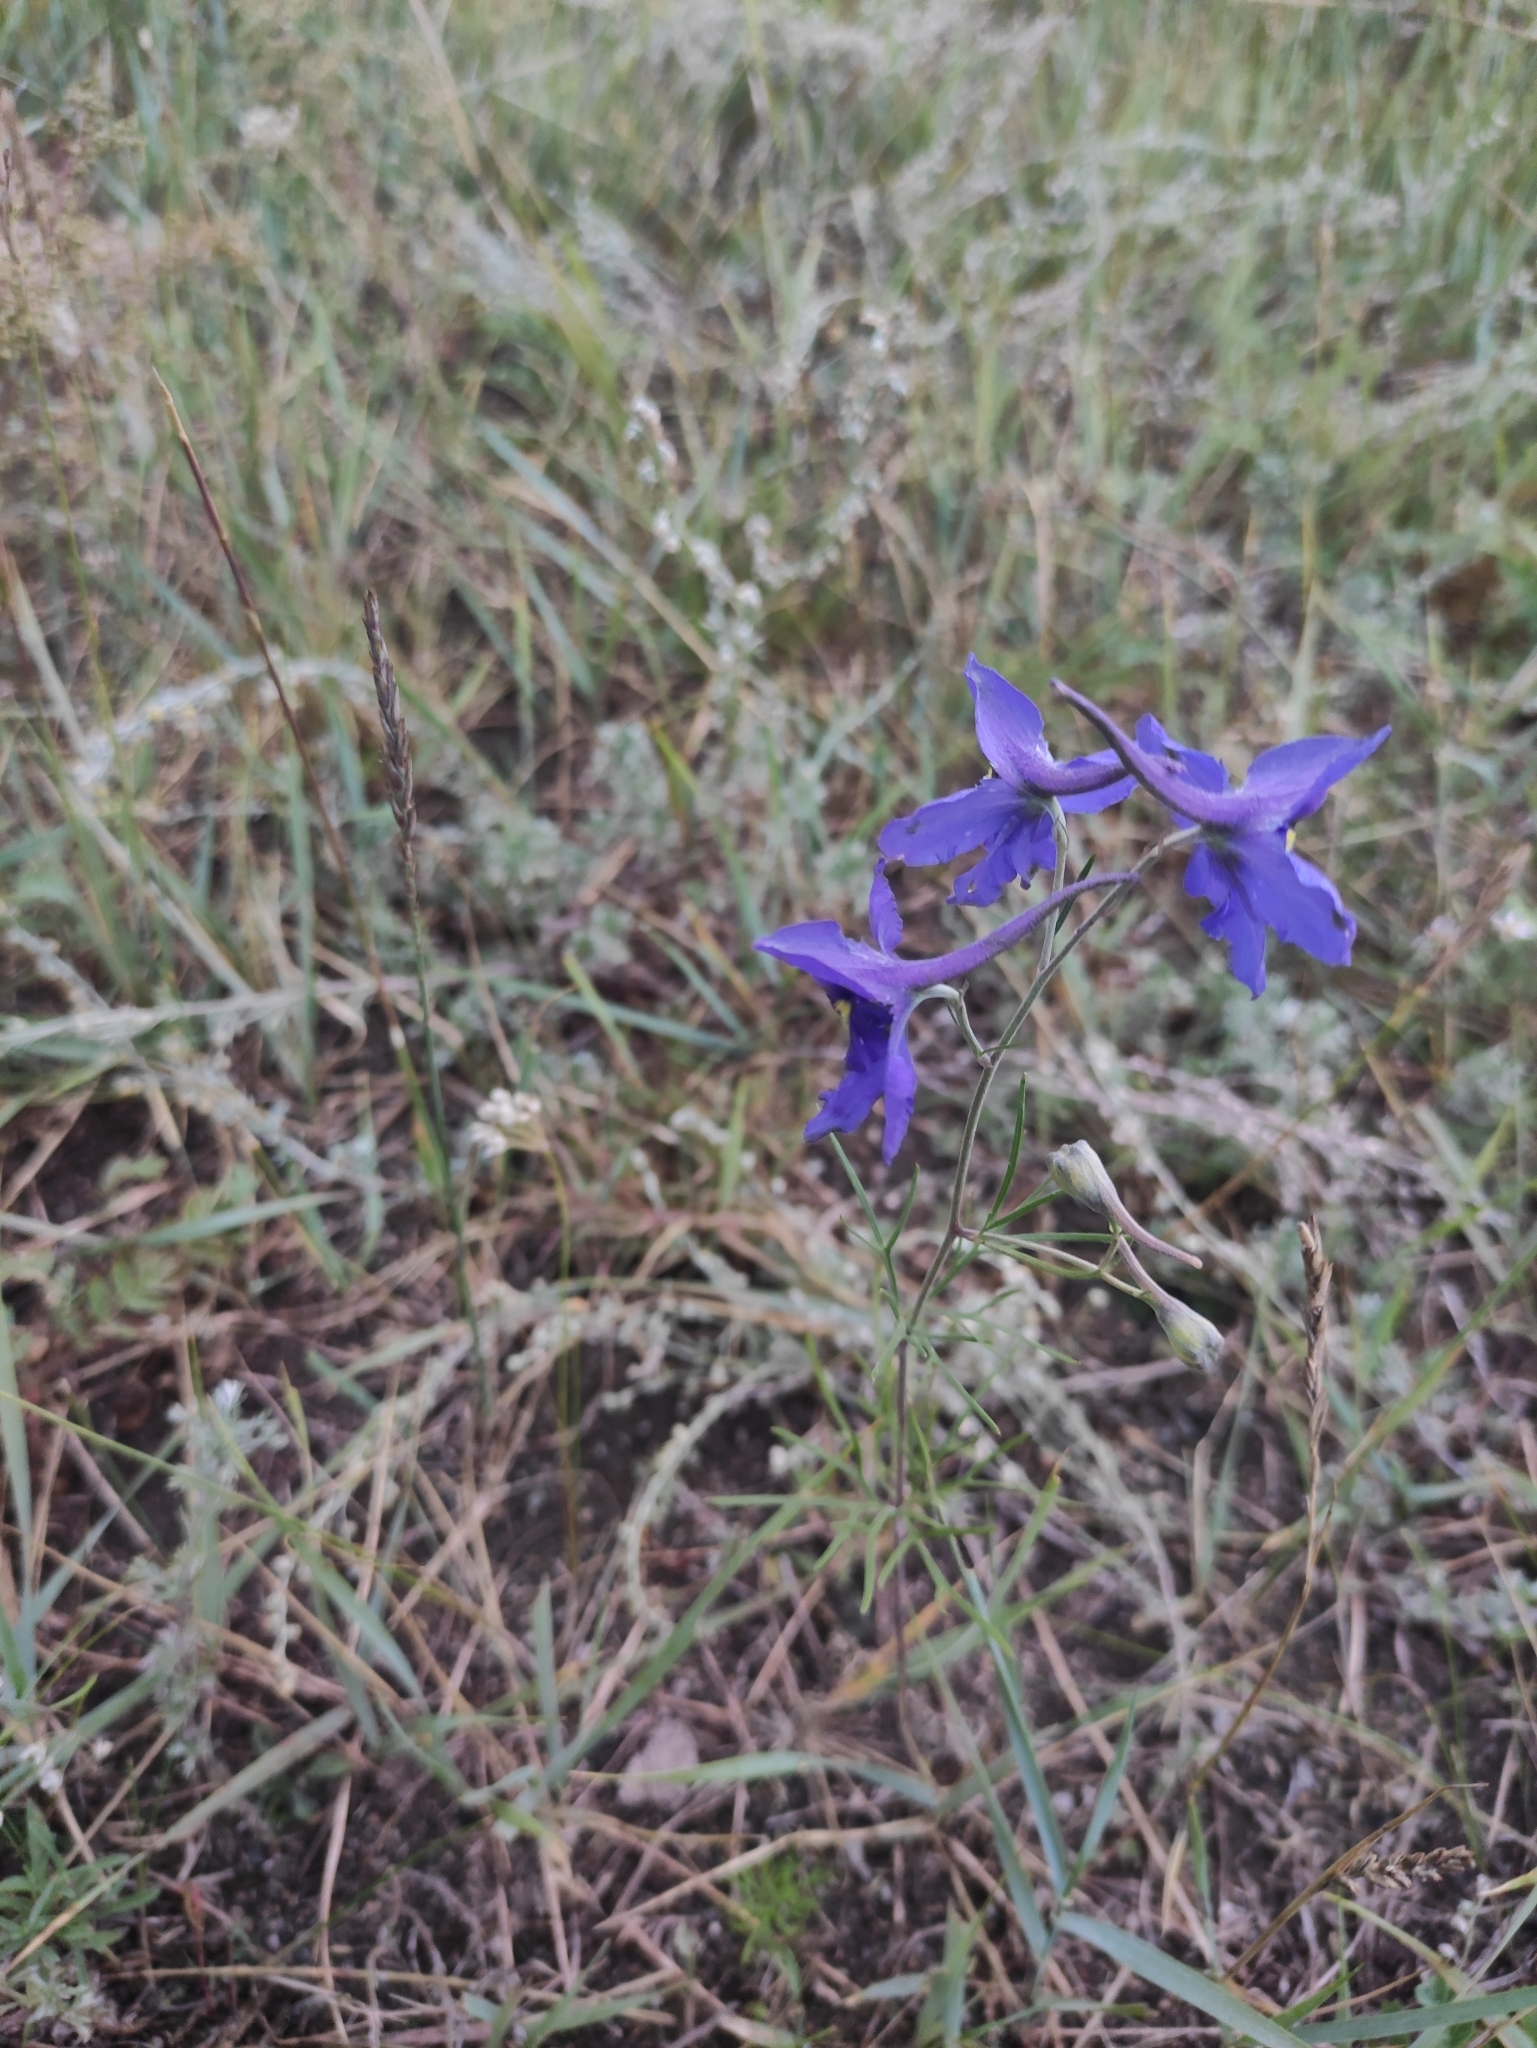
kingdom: Plantae
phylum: Tracheophyta
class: Magnoliopsida
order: Ranunculales
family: Ranunculaceae
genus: Delphinium
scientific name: Delphinium grandiflorum
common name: Siberian larkspur
